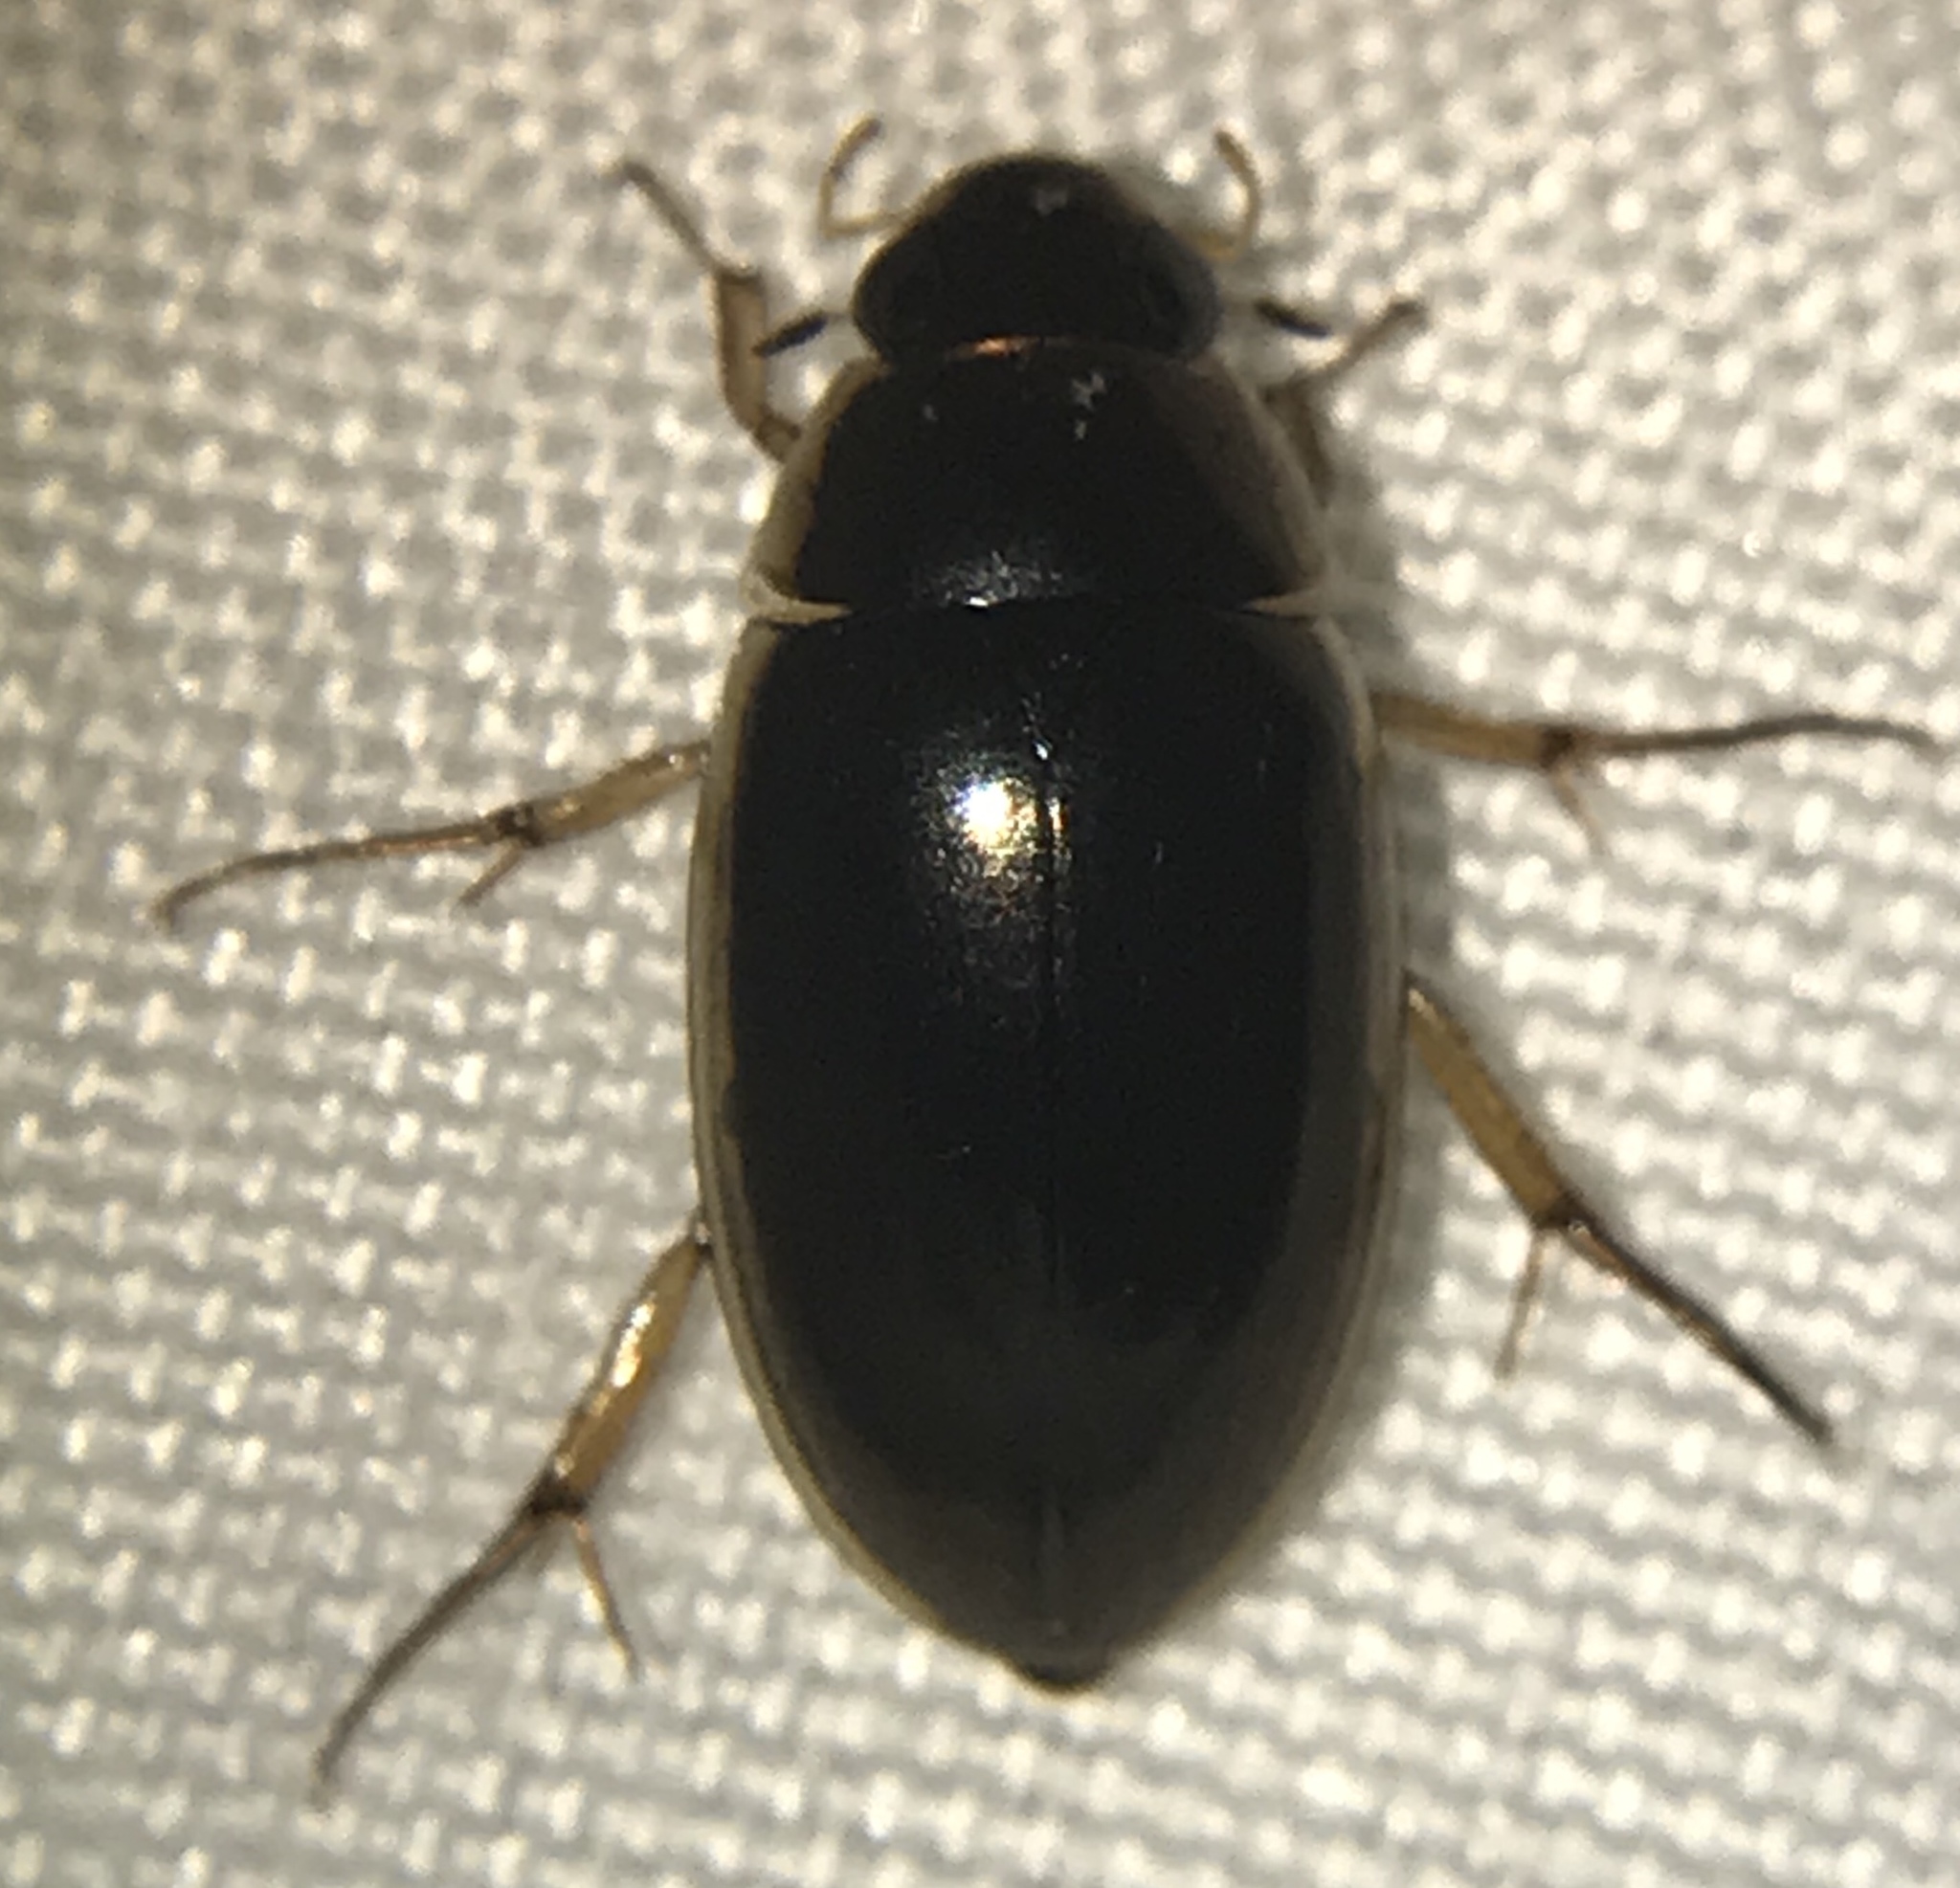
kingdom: Animalia
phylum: Arthropoda
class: Insecta
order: Coleoptera
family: Hydrophilidae
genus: Tropisternus
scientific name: Tropisternus lateralis
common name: Lateral-banded water scavenger beetle
